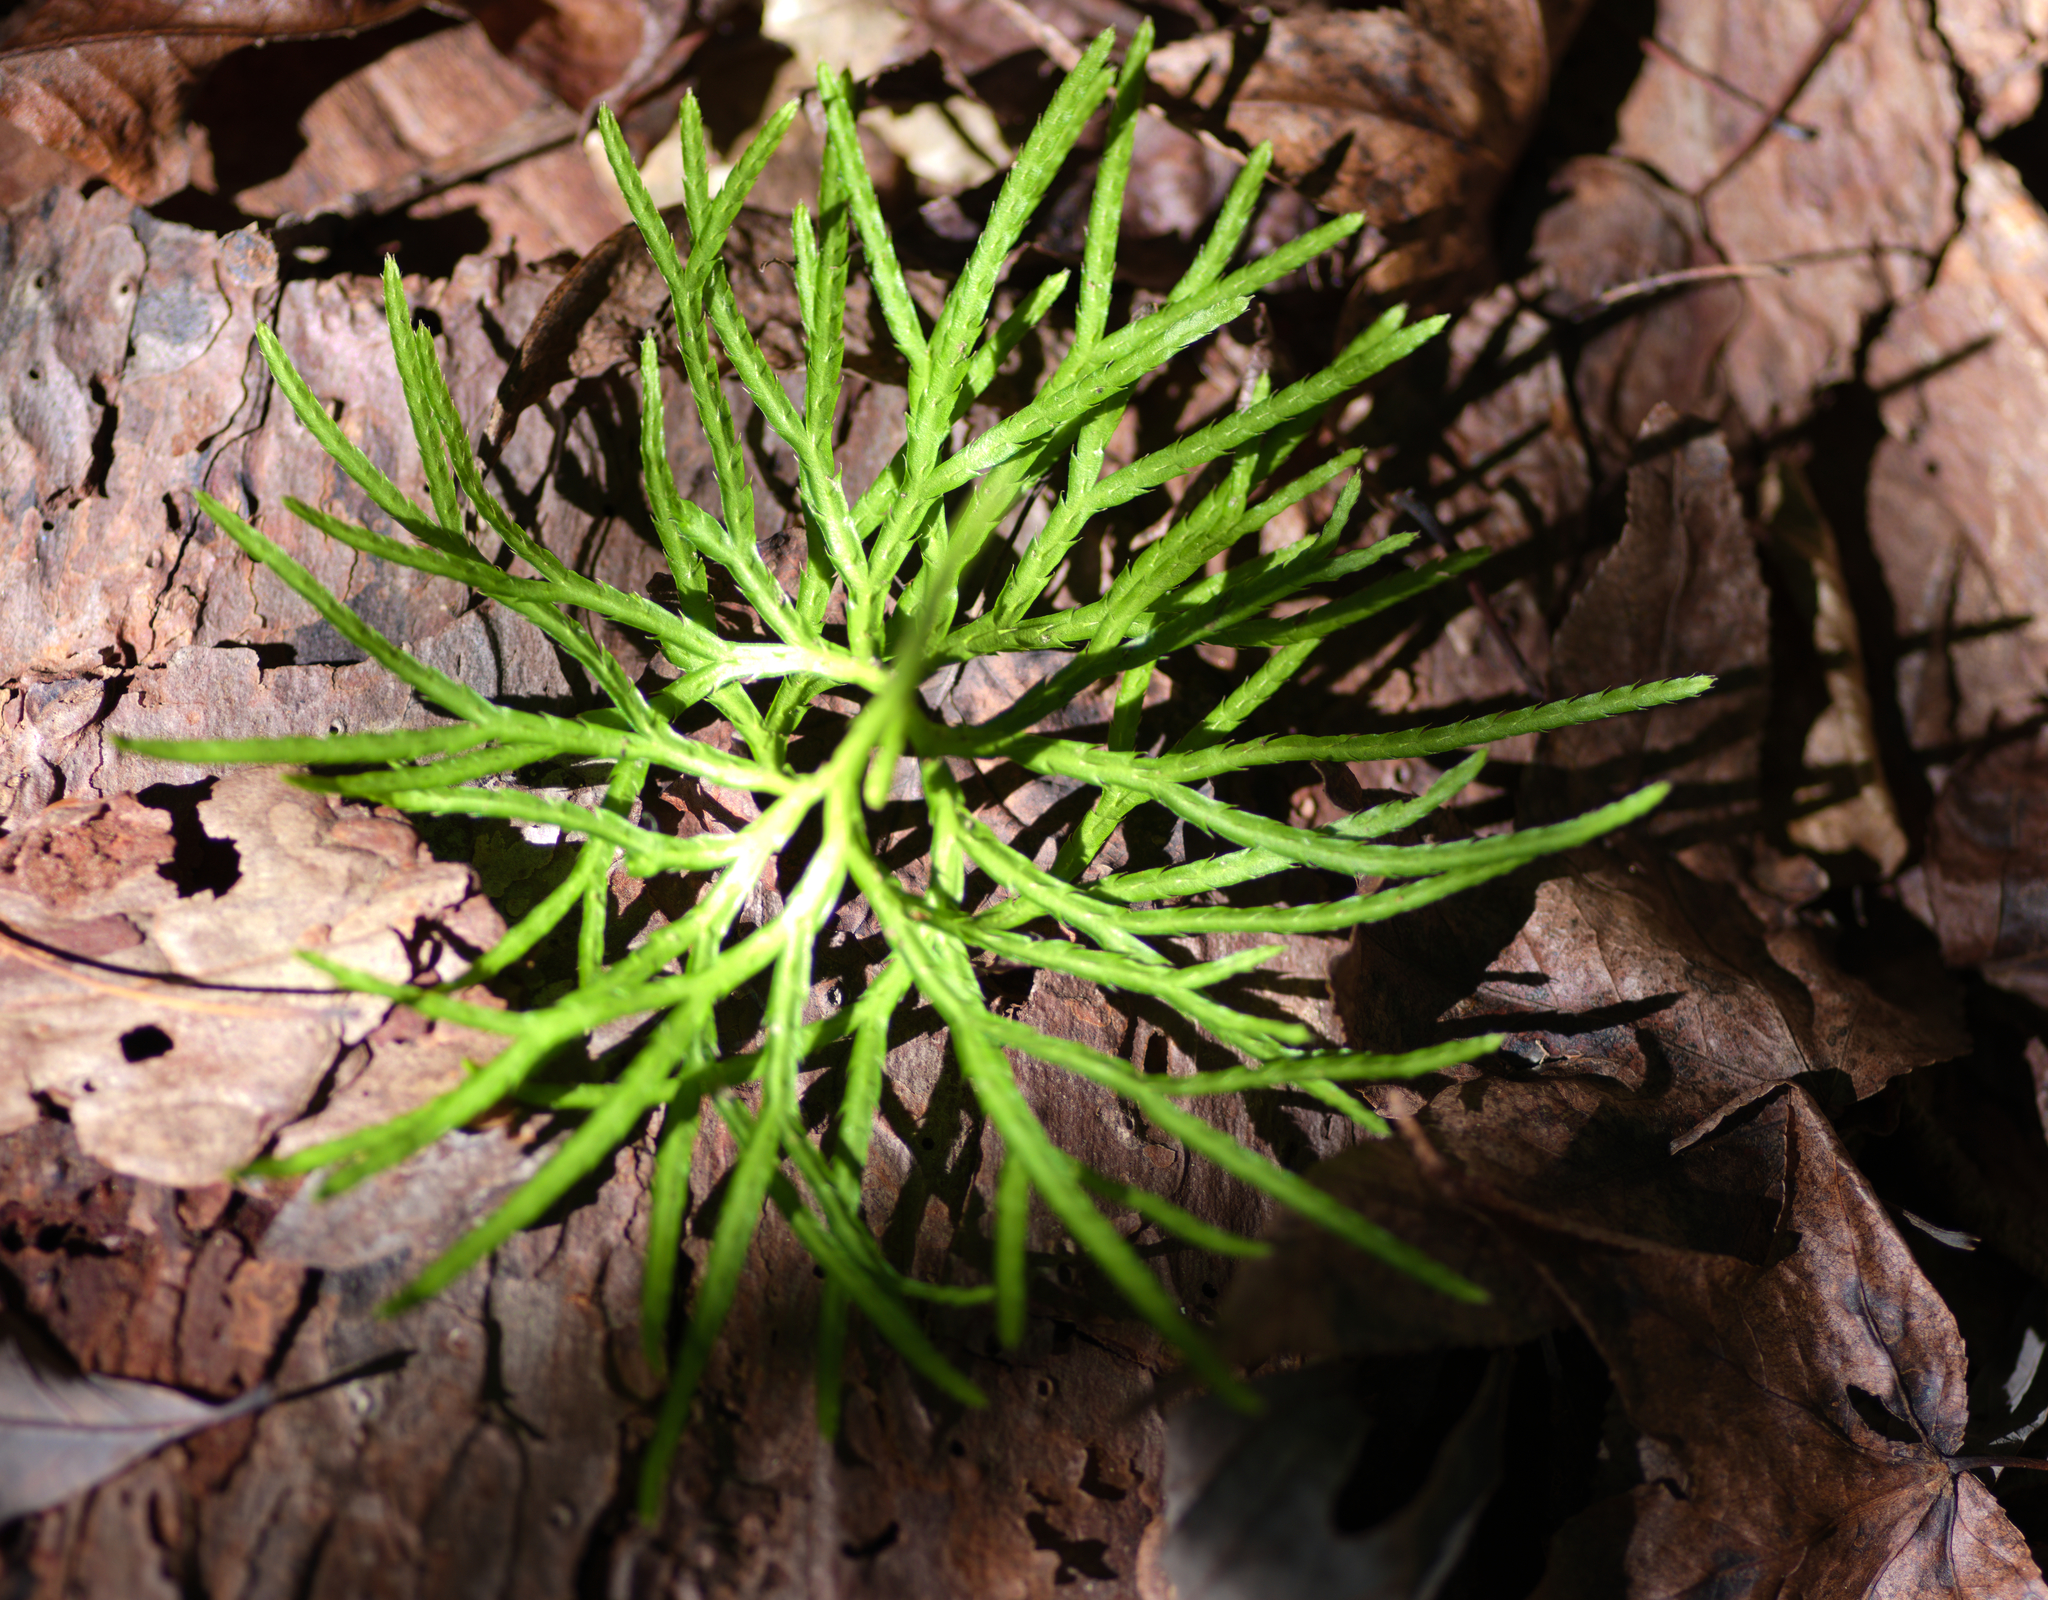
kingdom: Plantae
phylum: Tracheophyta
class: Lycopodiopsida
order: Lycopodiales
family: Lycopodiaceae
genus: Diphasiastrum
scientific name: Diphasiastrum digitatum
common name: Southern running-pine
